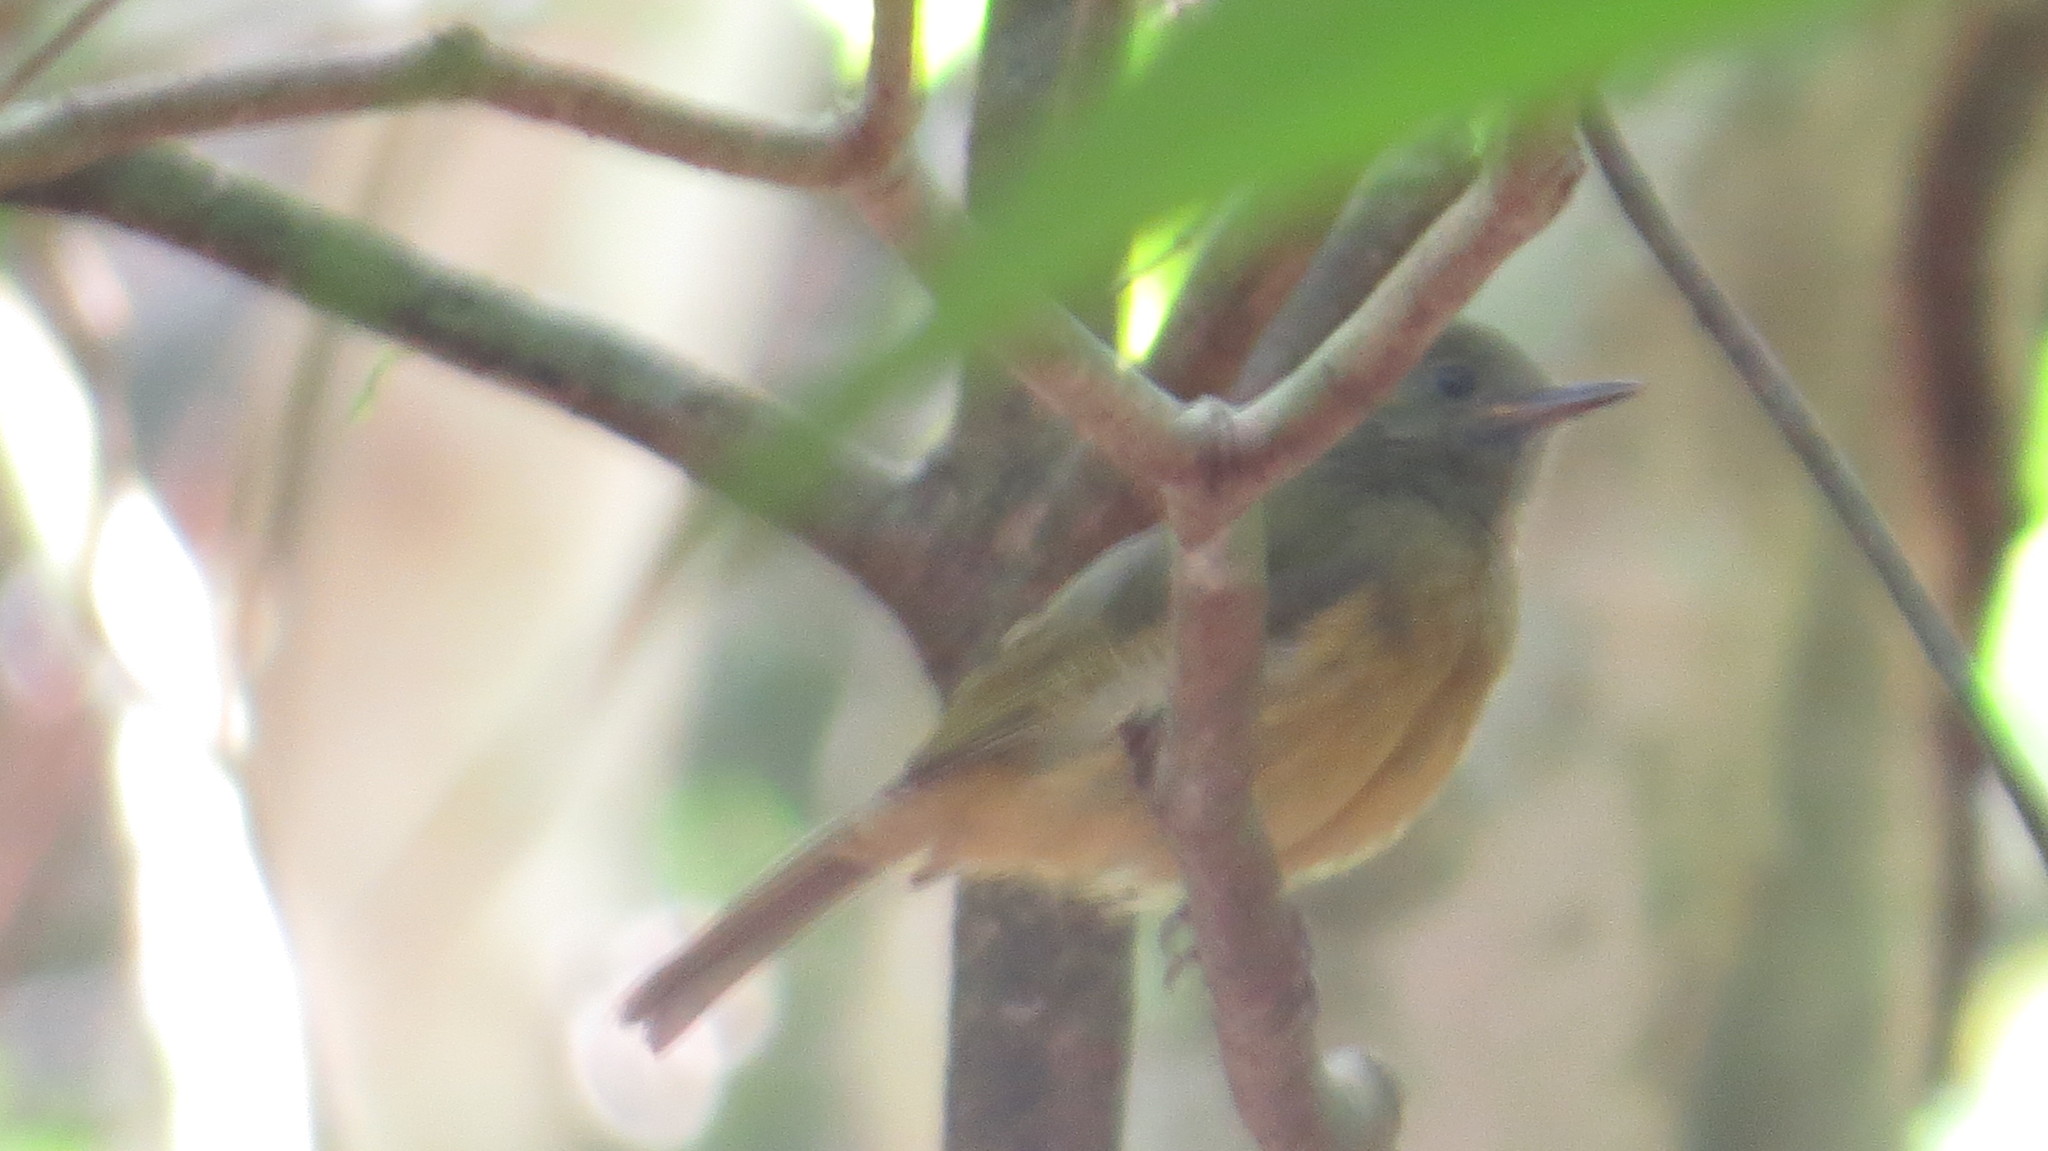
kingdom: Animalia
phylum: Chordata
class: Aves
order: Passeriformes
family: Tyrannidae
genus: Mionectes
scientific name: Mionectes oleagineus
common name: Ochre-bellied flycatcher
